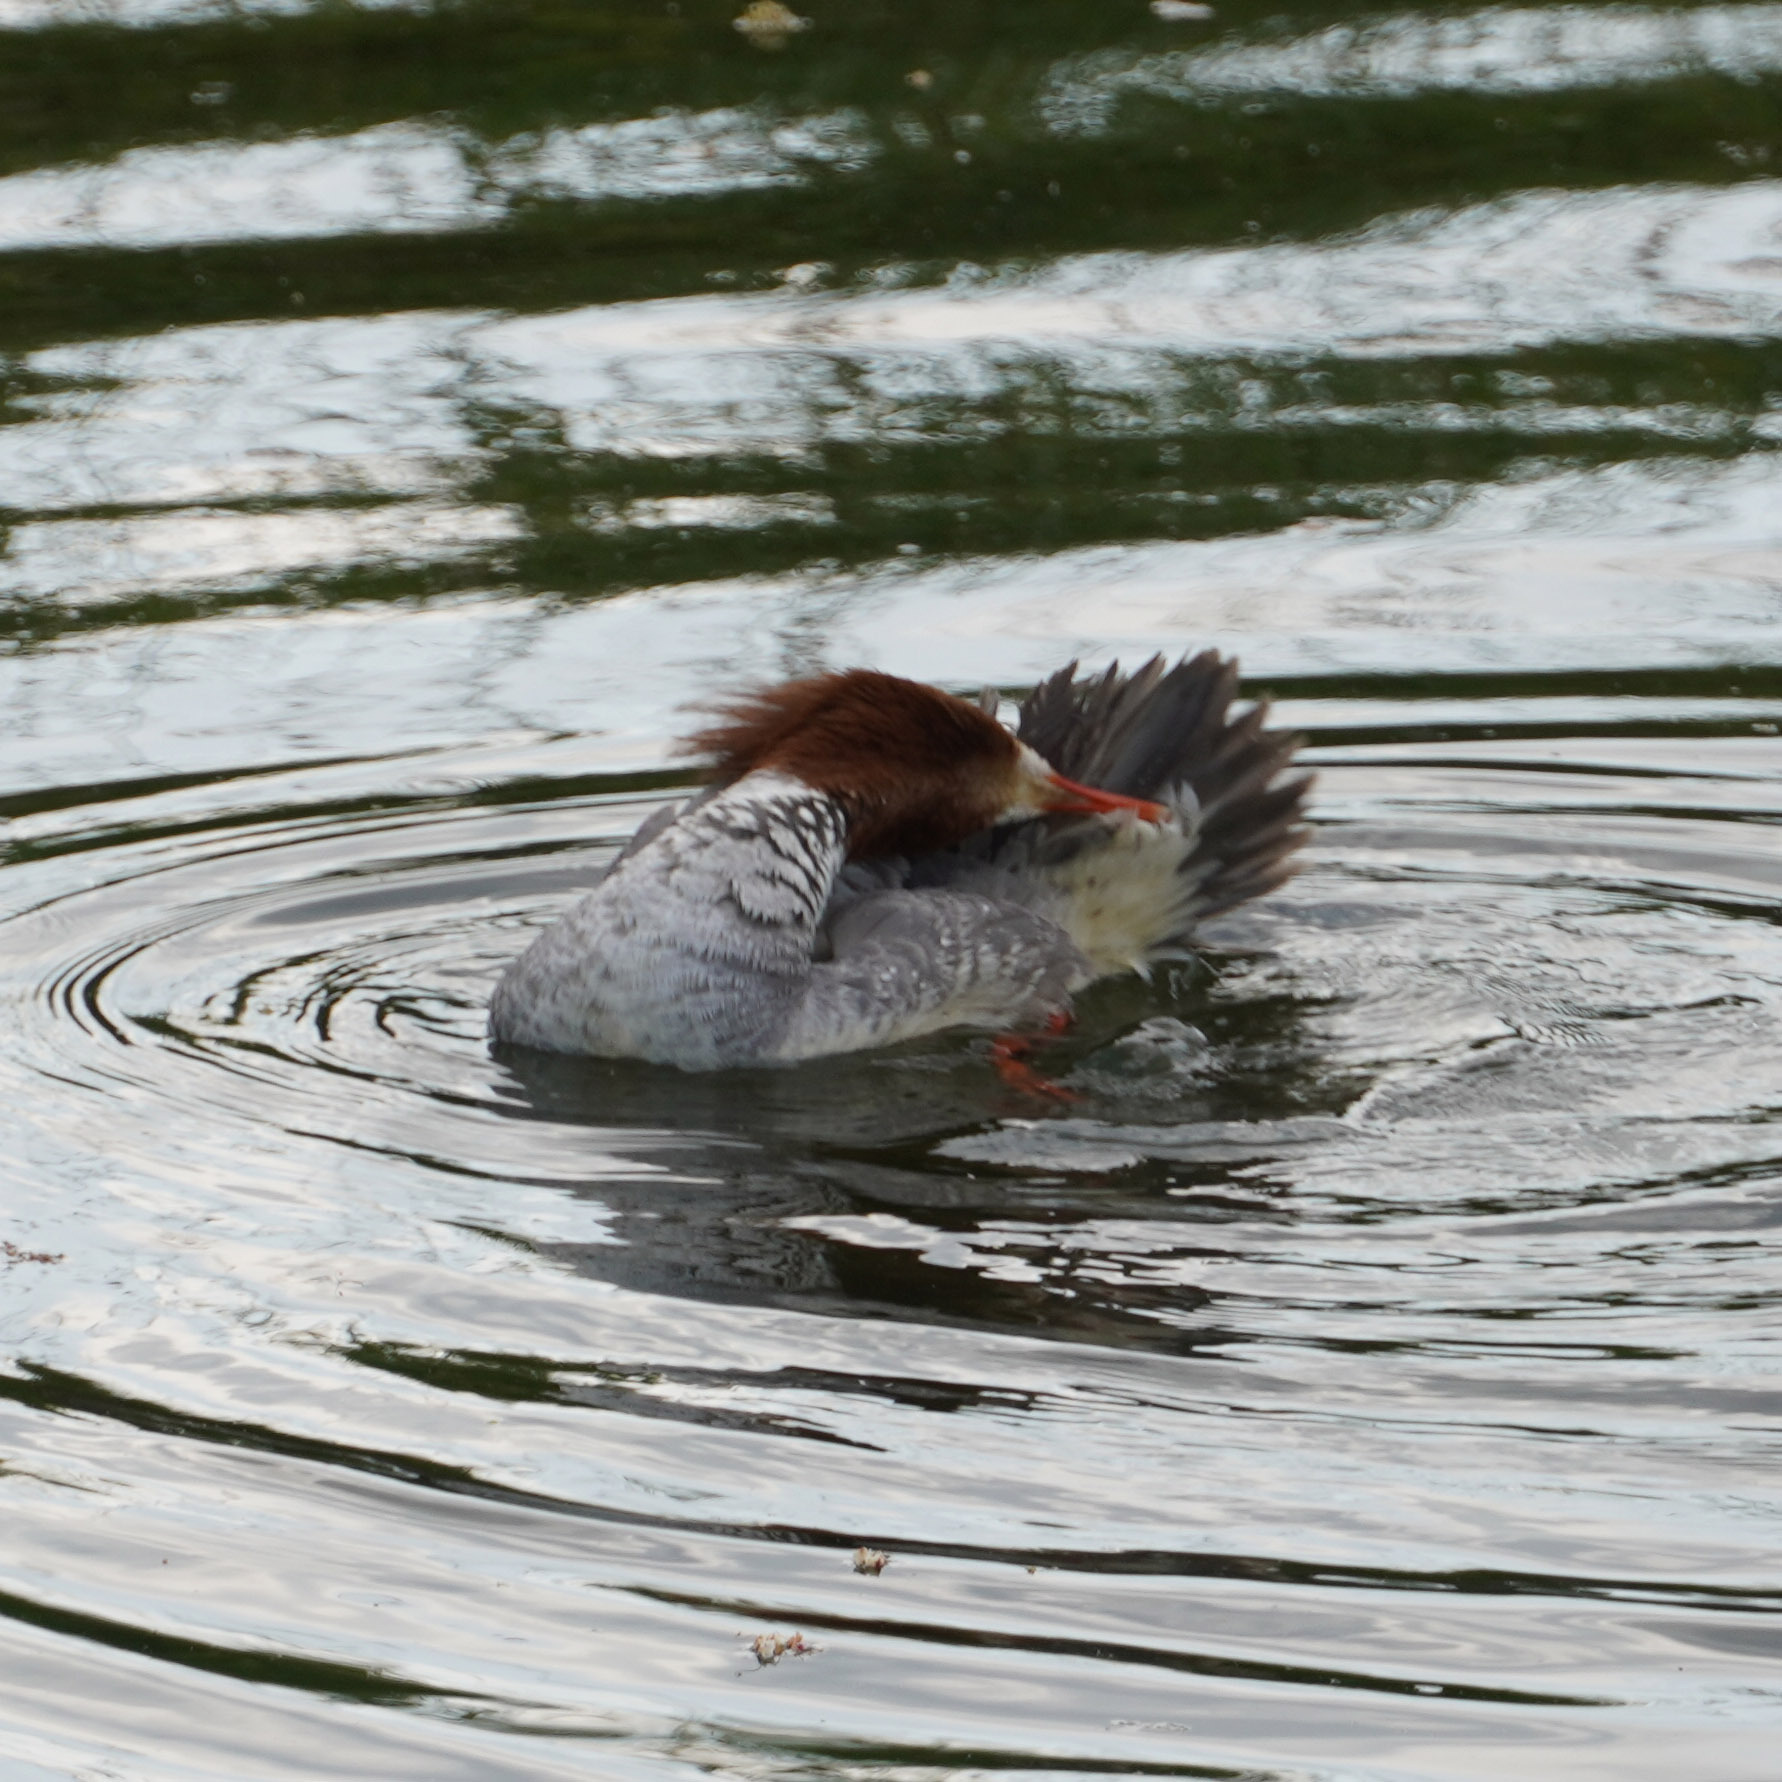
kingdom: Animalia
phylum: Chordata
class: Aves
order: Anseriformes
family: Anatidae
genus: Mergus
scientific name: Mergus merganser
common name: Common merganser
